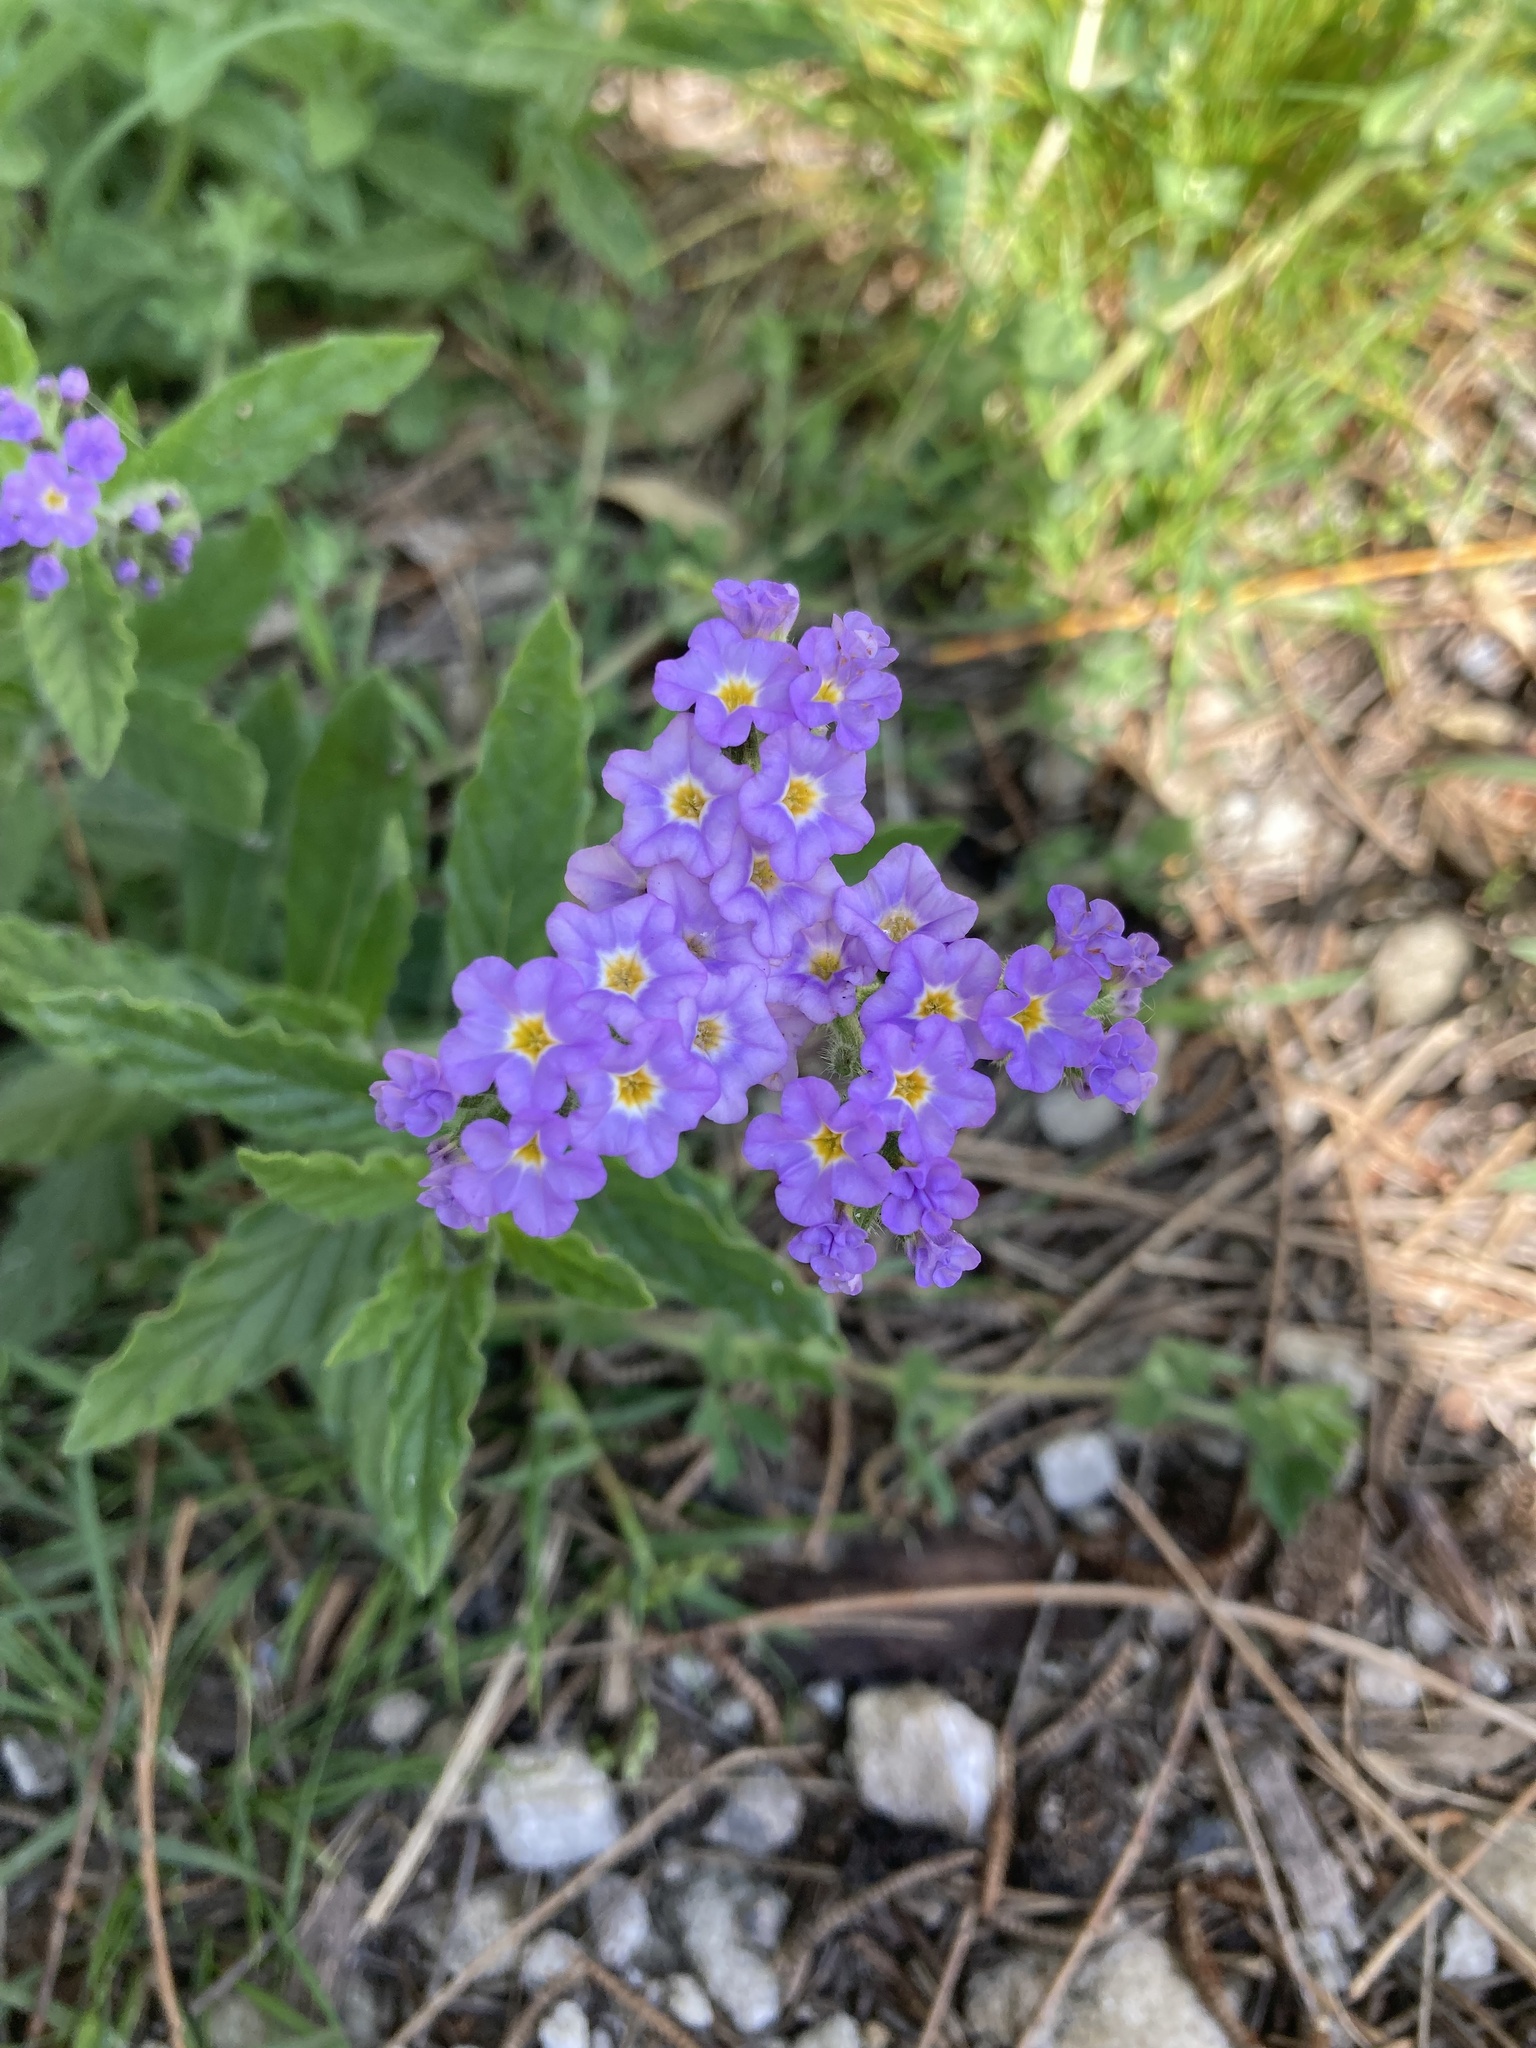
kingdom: Plantae
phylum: Tracheophyta
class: Magnoliopsida
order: Boraginales
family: Heliotropiaceae
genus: Heliotropium
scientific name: Heliotropium amplexicaule
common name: Clasping heliotrope
